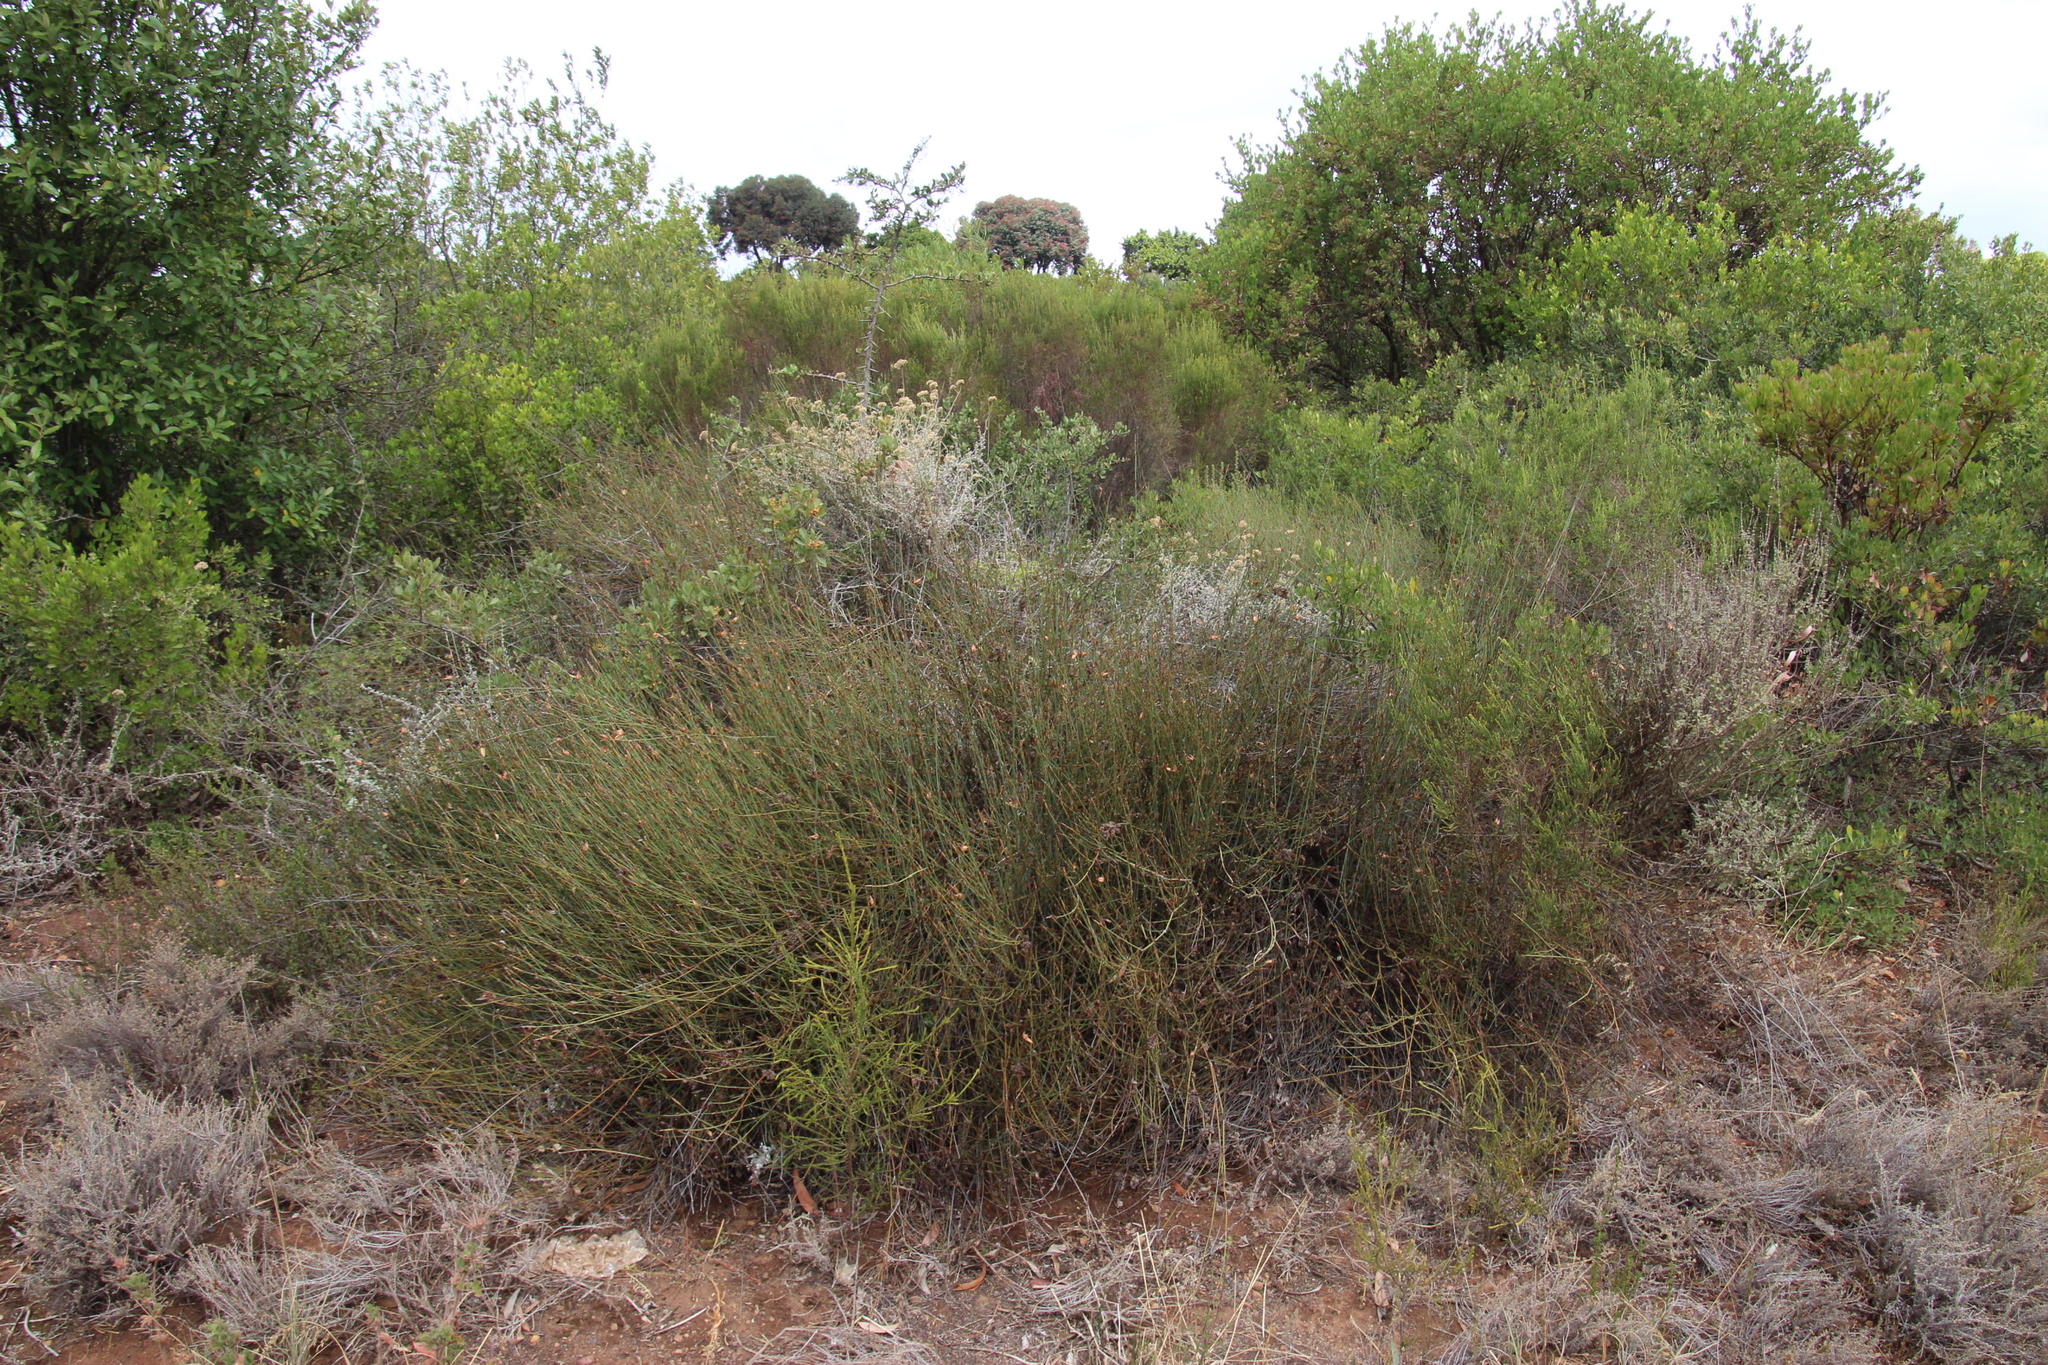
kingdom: Plantae
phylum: Tracheophyta
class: Liliopsida
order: Poales
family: Restionaceae
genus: Willdenowia
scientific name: Willdenowia incurvata
